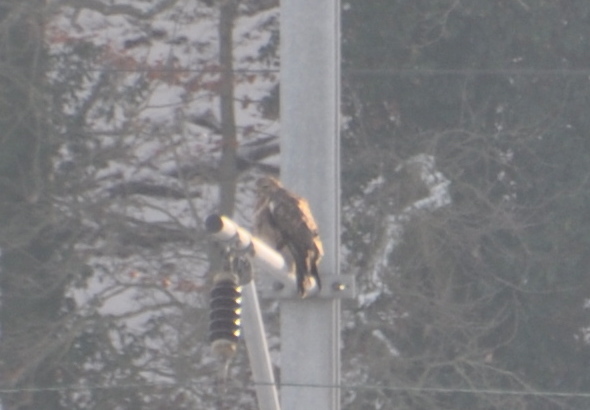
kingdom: Animalia
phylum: Chordata
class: Aves
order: Accipitriformes
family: Accipitridae
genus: Buteo
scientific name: Buteo buteo
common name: Common buzzard
